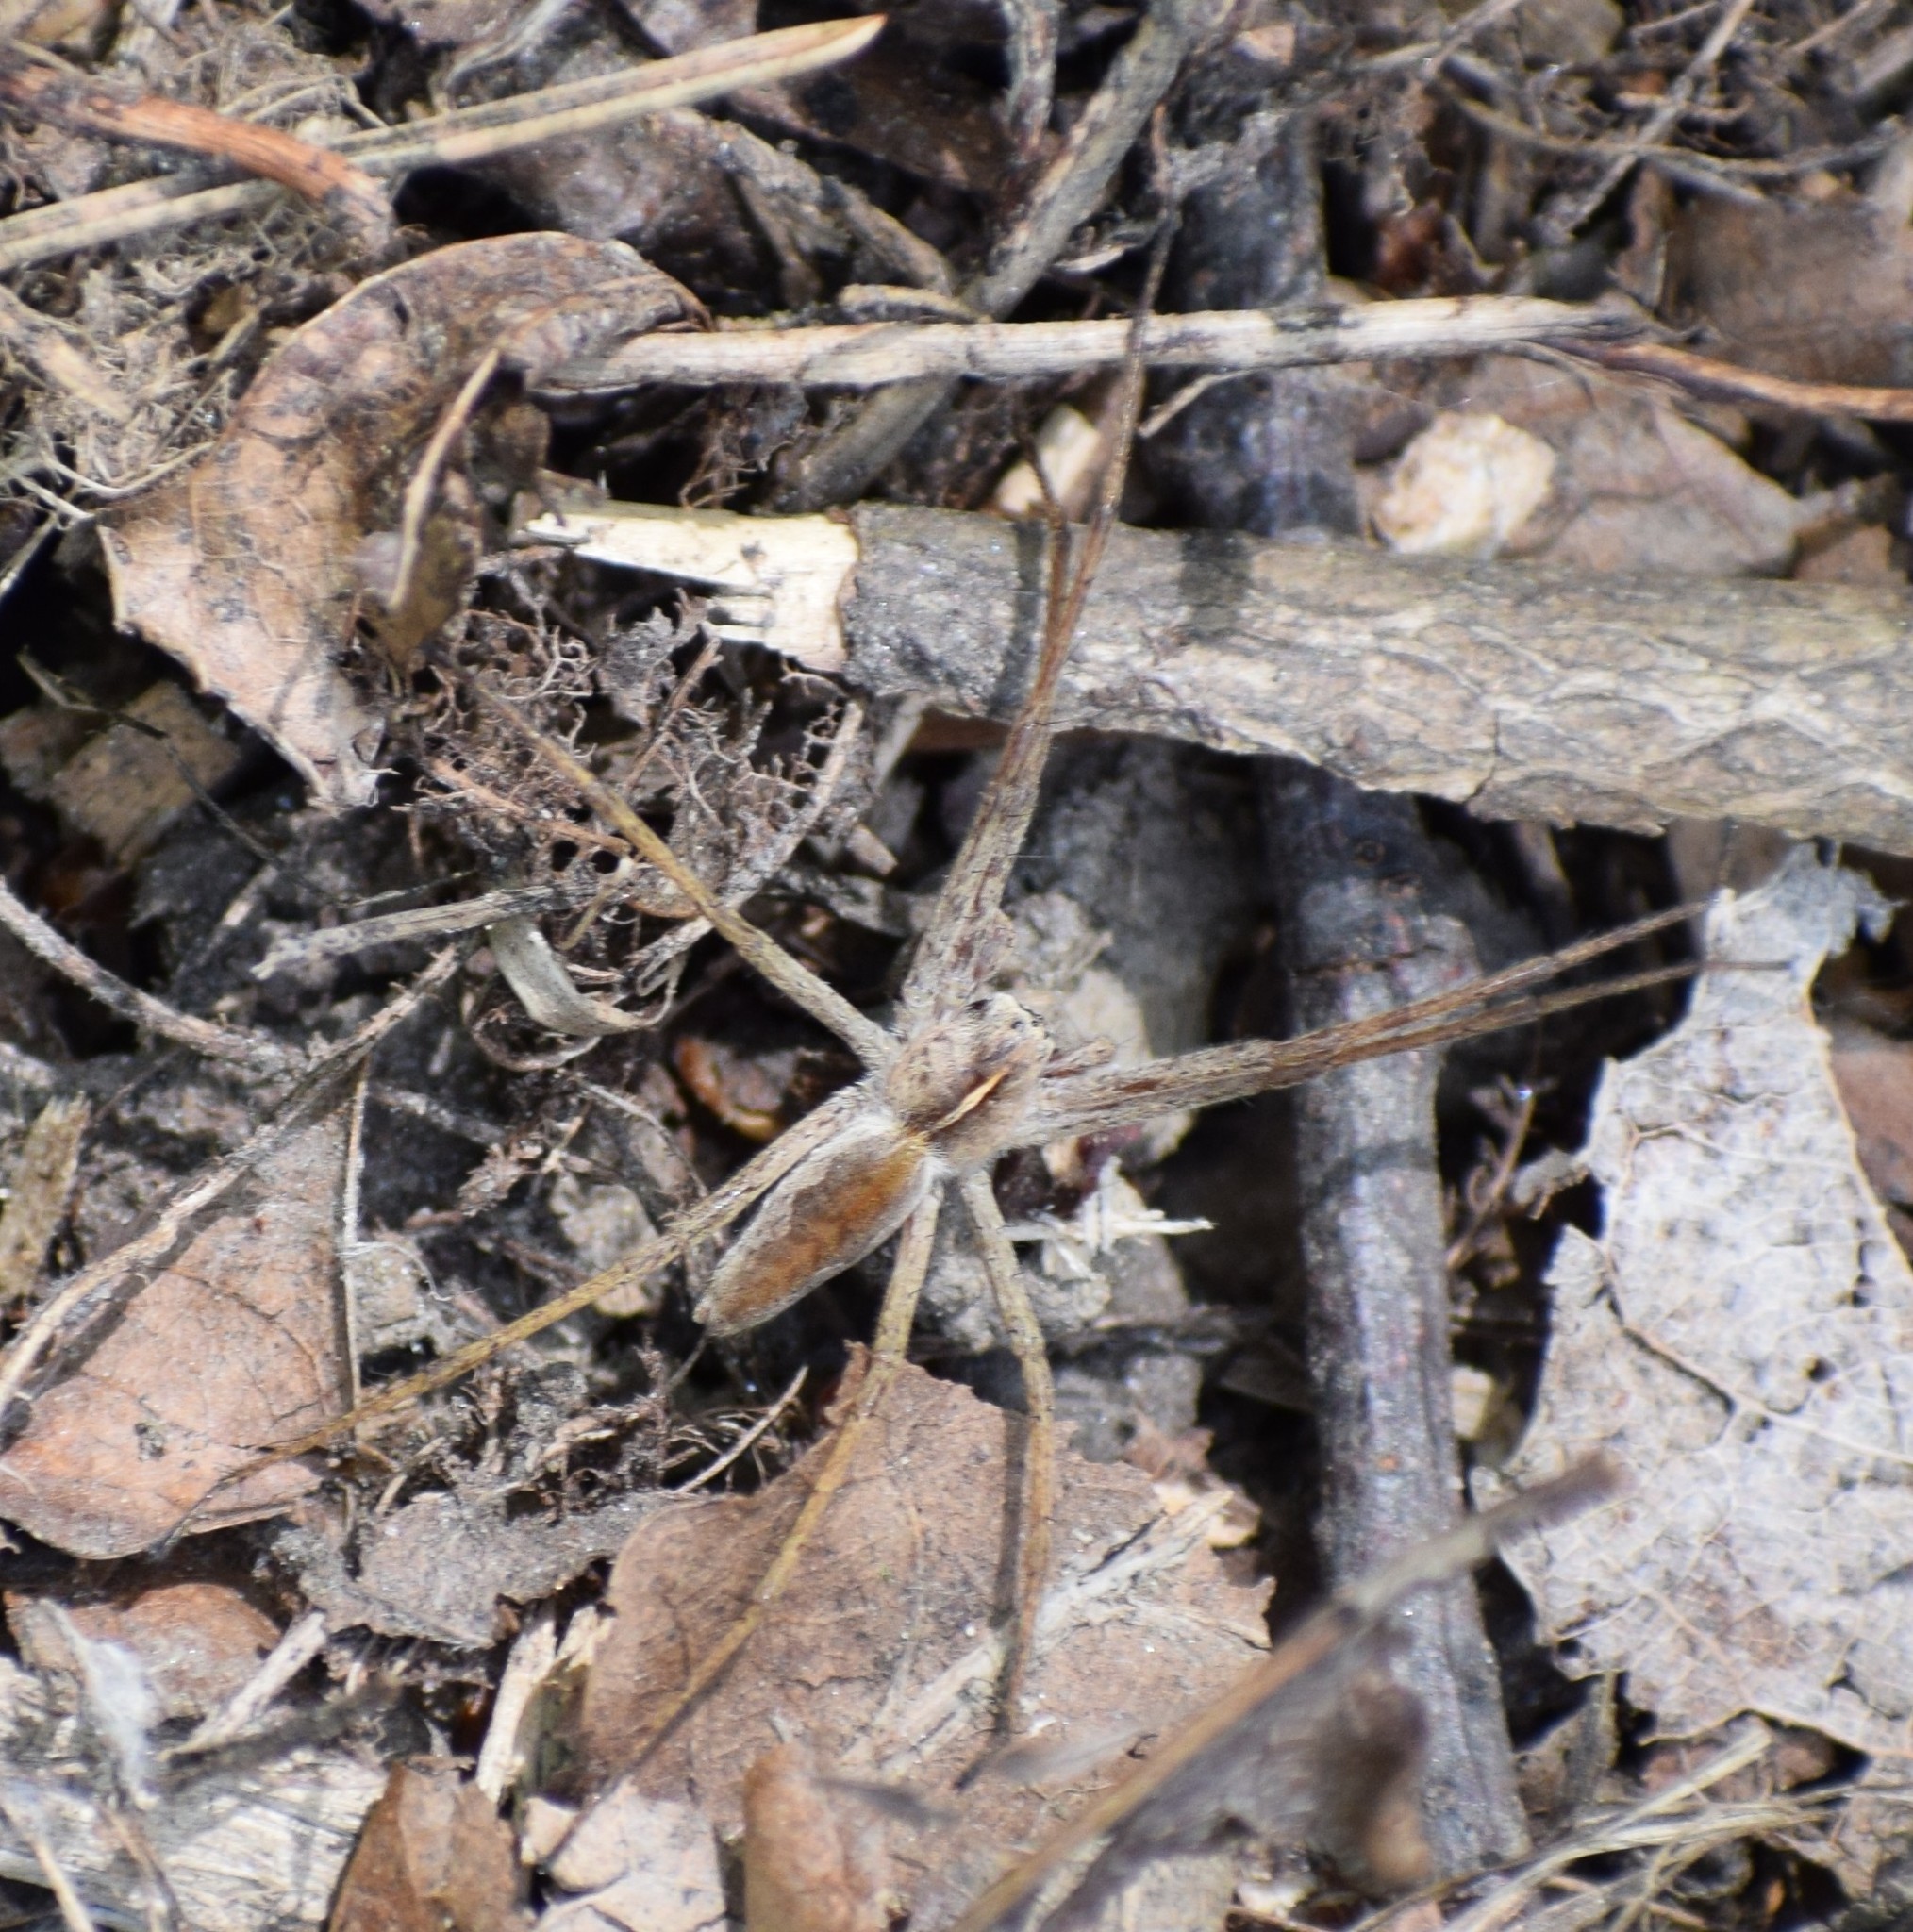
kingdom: Animalia
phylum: Arthropoda
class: Arachnida
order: Araneae
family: Pisauridae
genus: Pisaura
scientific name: Pisaura mirabilis
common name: Tent spider
